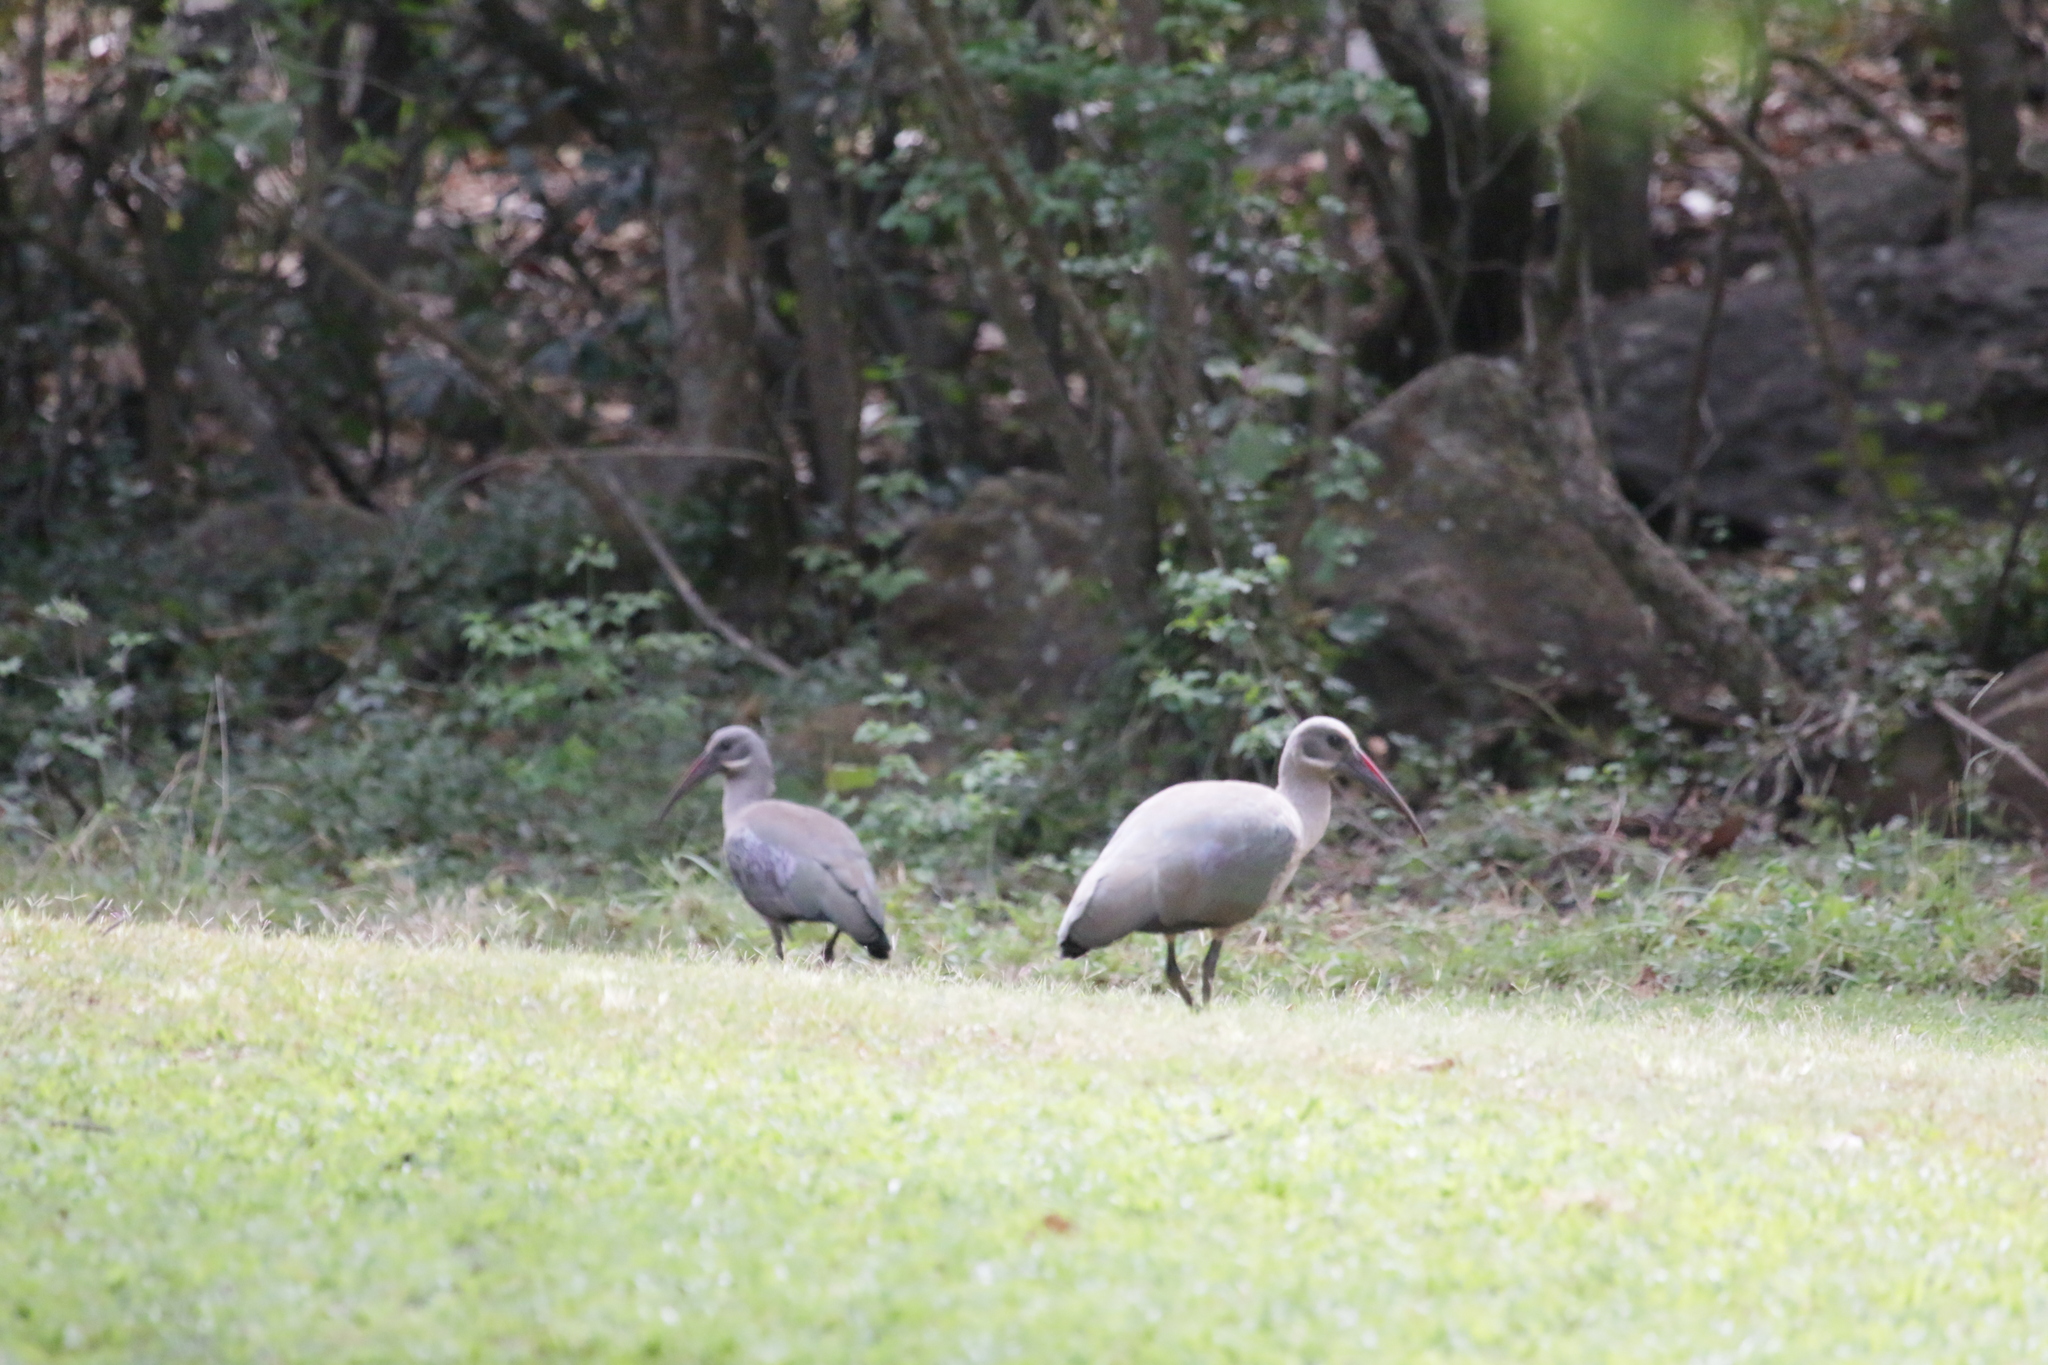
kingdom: Animalia
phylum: Chordata
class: Aves
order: Pelecaniformes
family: Threskiornithidae
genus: Bostrychia
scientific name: Bostrychia hagedash
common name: Hadada ibis
